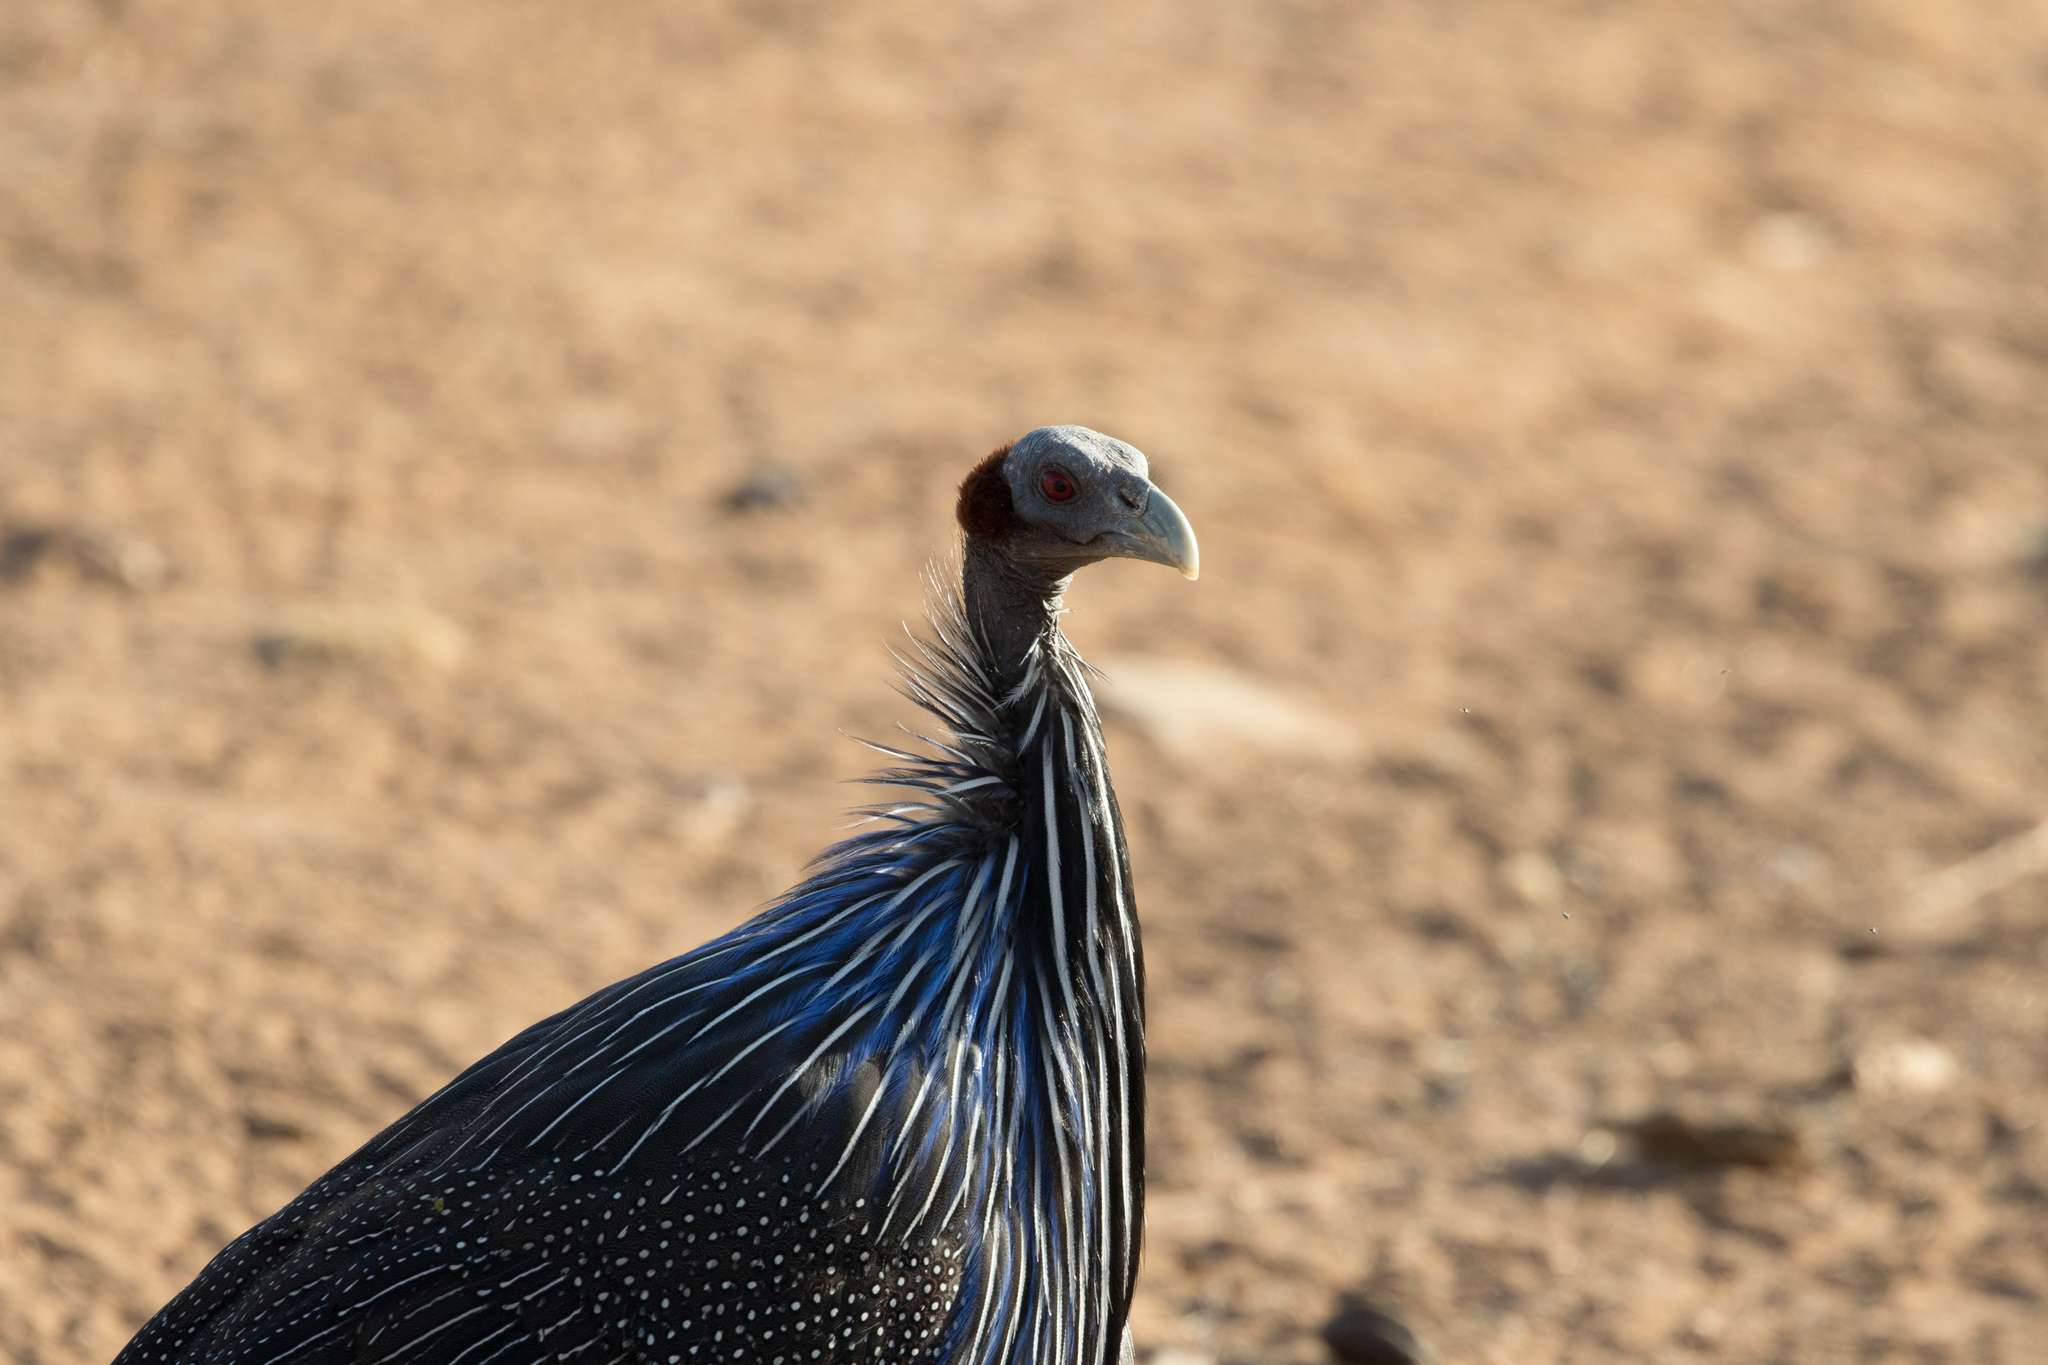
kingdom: Animalia
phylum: Chordata
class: Aves
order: Galliformes
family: Numididae
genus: Acryllium
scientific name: Acryllium vulturinum
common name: Vulturine guineafowl
